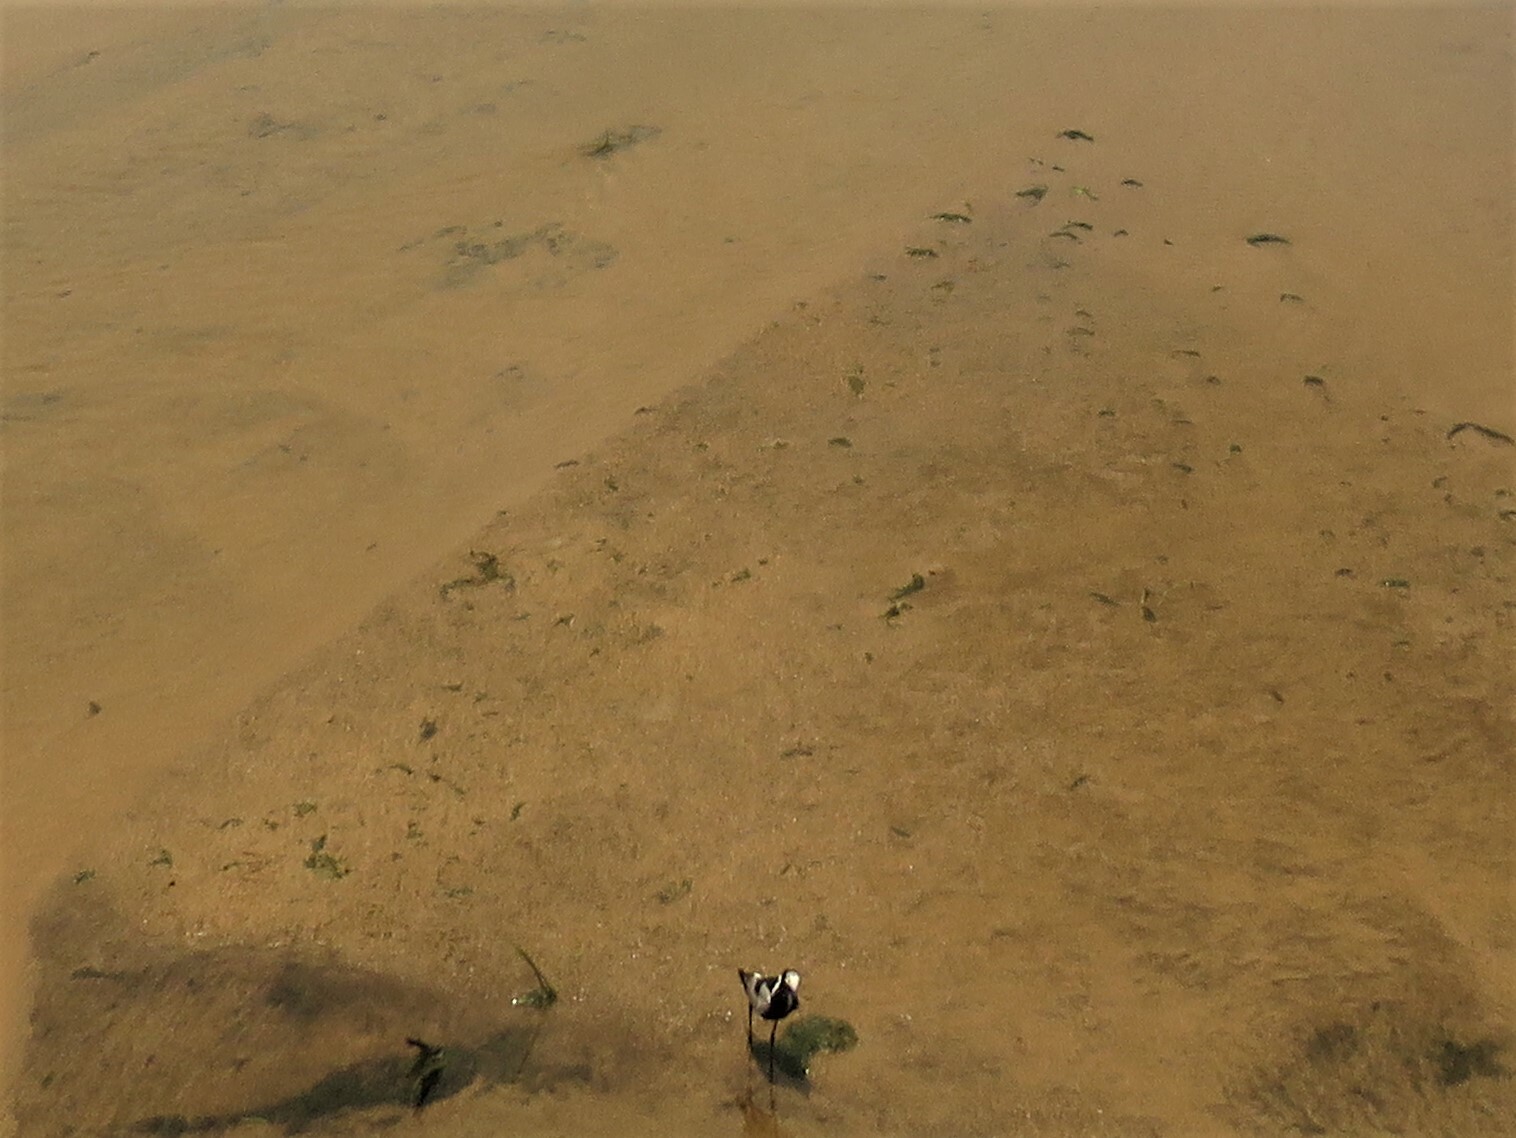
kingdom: Animalia
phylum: Chordata
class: Aves
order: Charadriiformes
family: Charadriidae
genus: Vanellus
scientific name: Vanellus armatus
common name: Blacksmith lapwing
